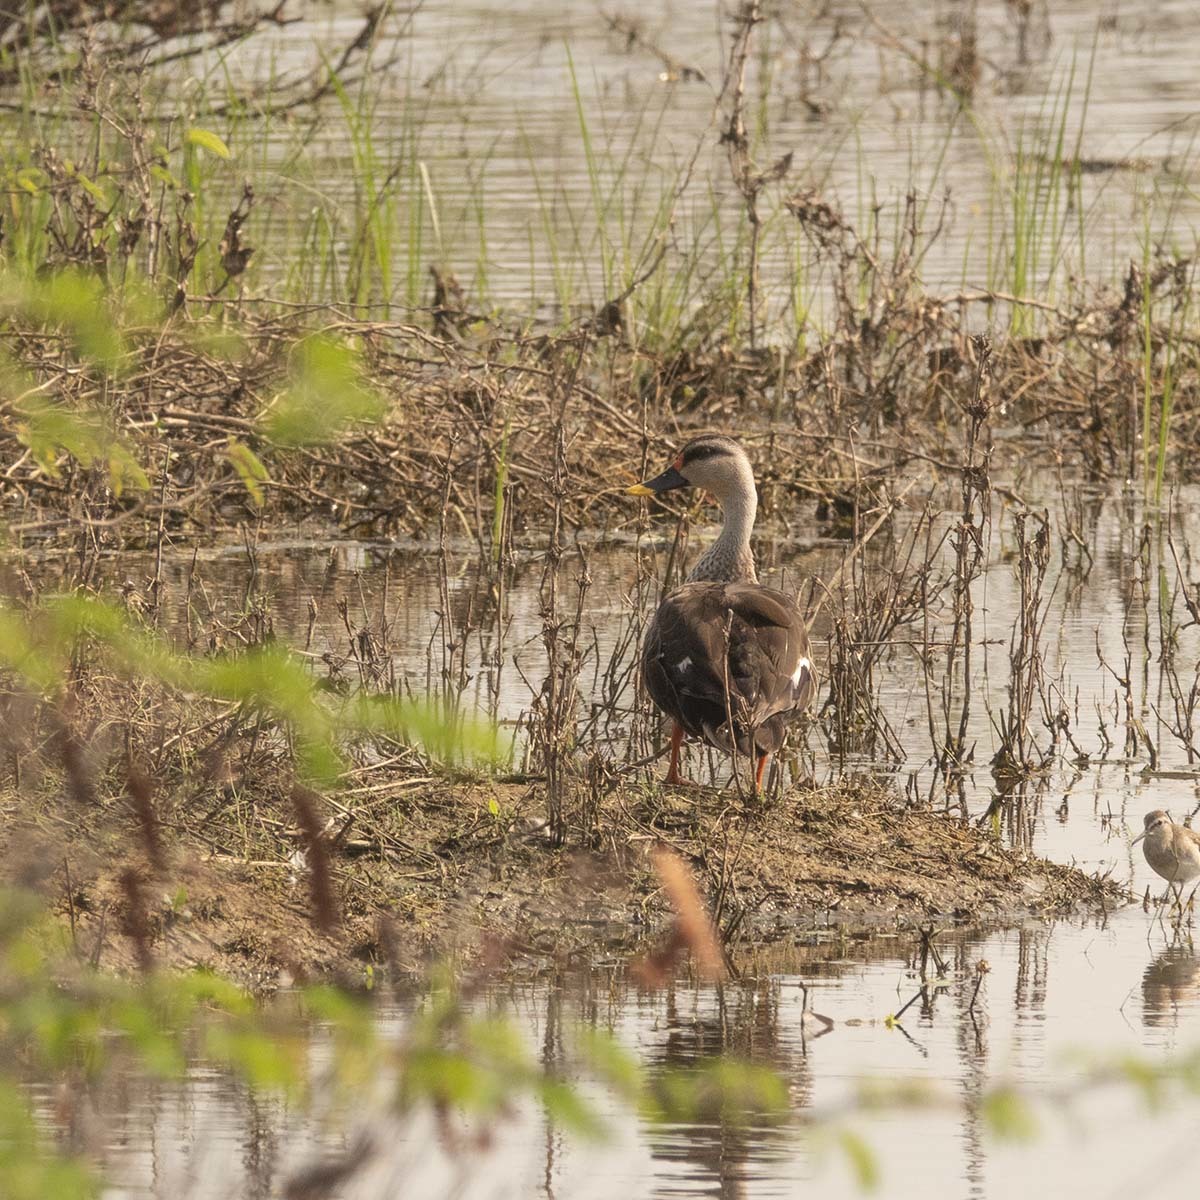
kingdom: Animalia
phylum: Chordata
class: Aves
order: Anseriformes
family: Anatidae
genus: Anas
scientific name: Anas poecilorhyncha
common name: Indian spot-billed duck
